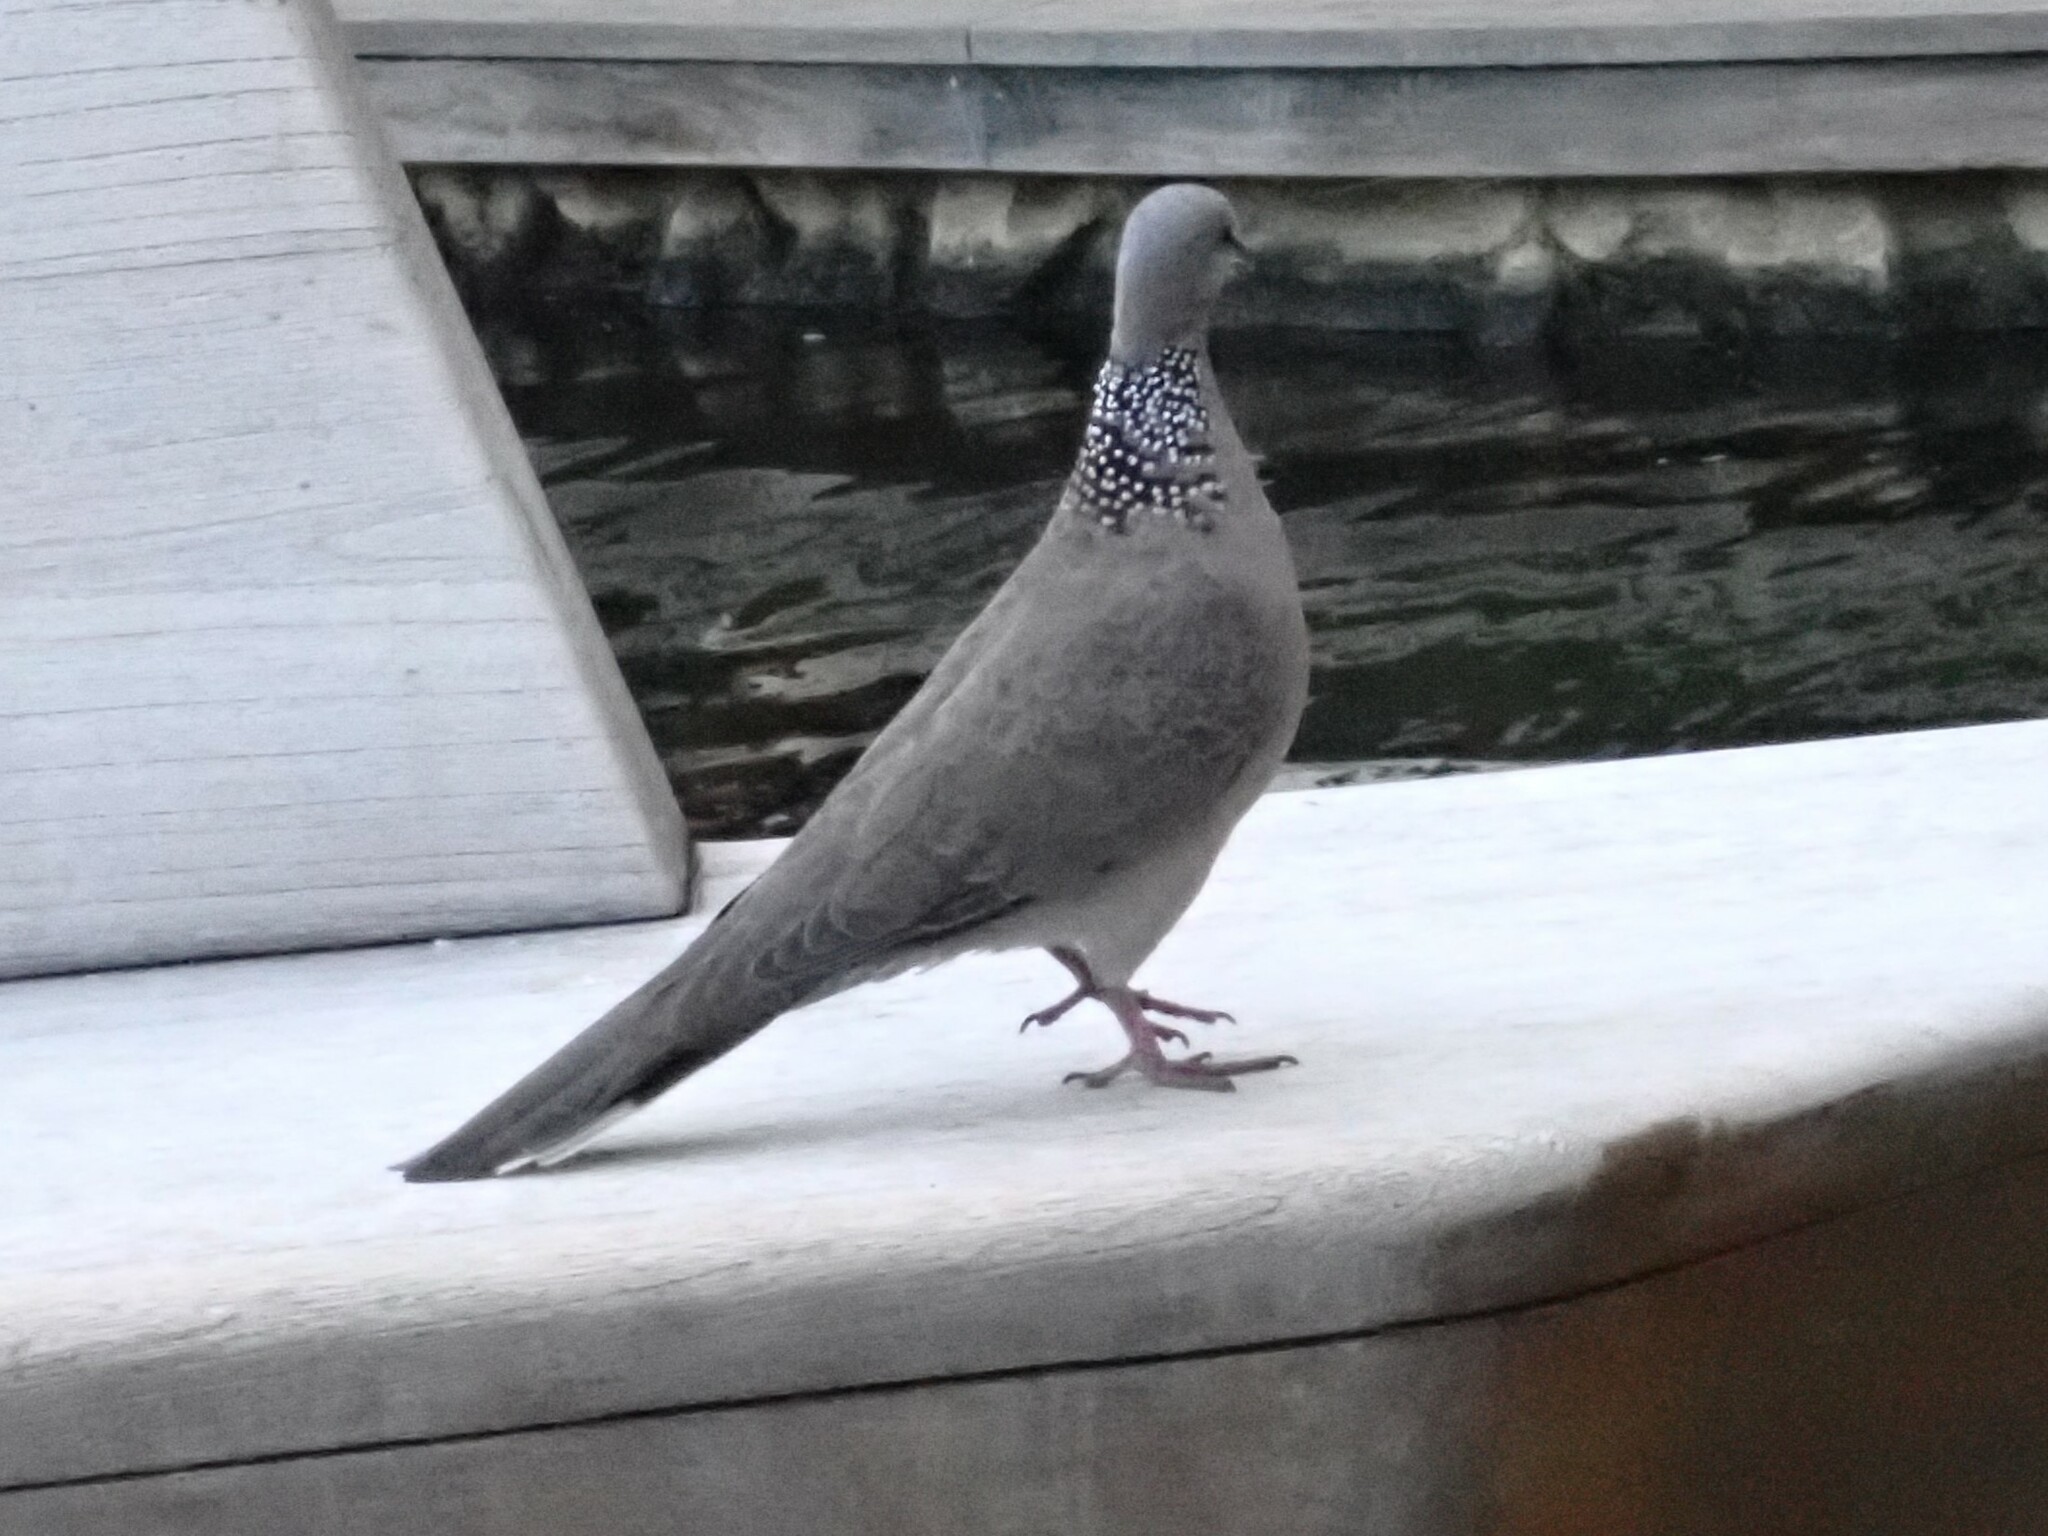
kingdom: Animalia
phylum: Chordata
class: Aves
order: Columbiformes
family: Columbidae
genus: Spilopelia
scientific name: Spilopelia chinensis
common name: Spotted dove
